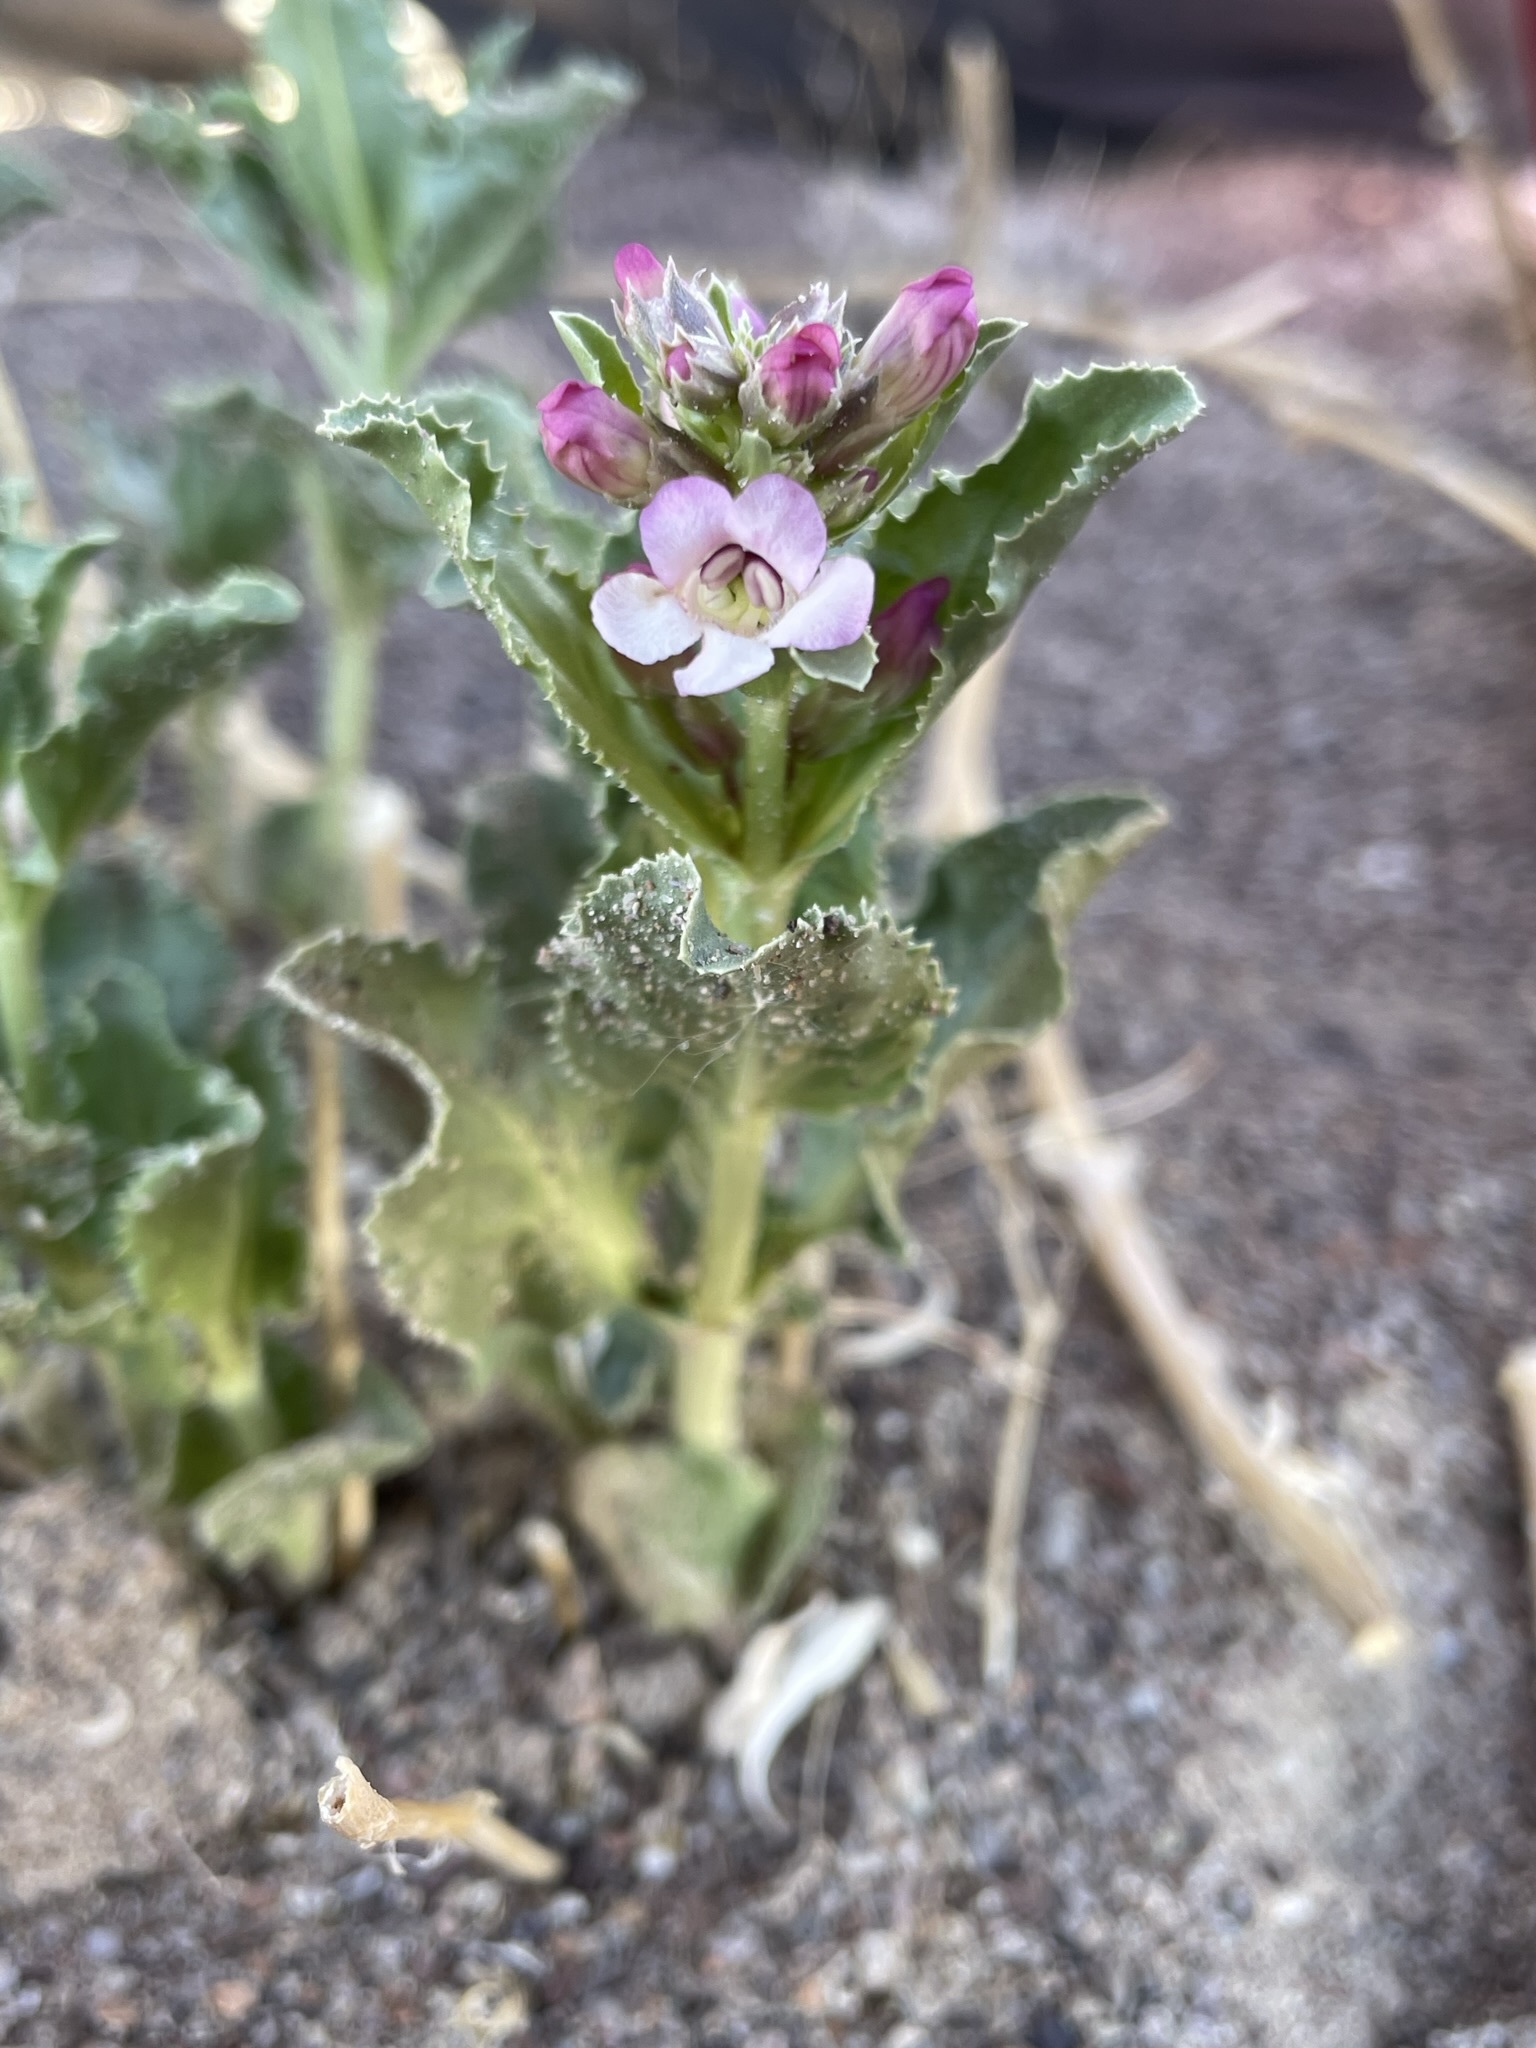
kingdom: Plantae
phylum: Tracheophyta
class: Magnoliopsida
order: Lamiales
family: Plantaginaceae
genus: Penstemon
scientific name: Penstemon arenarius
